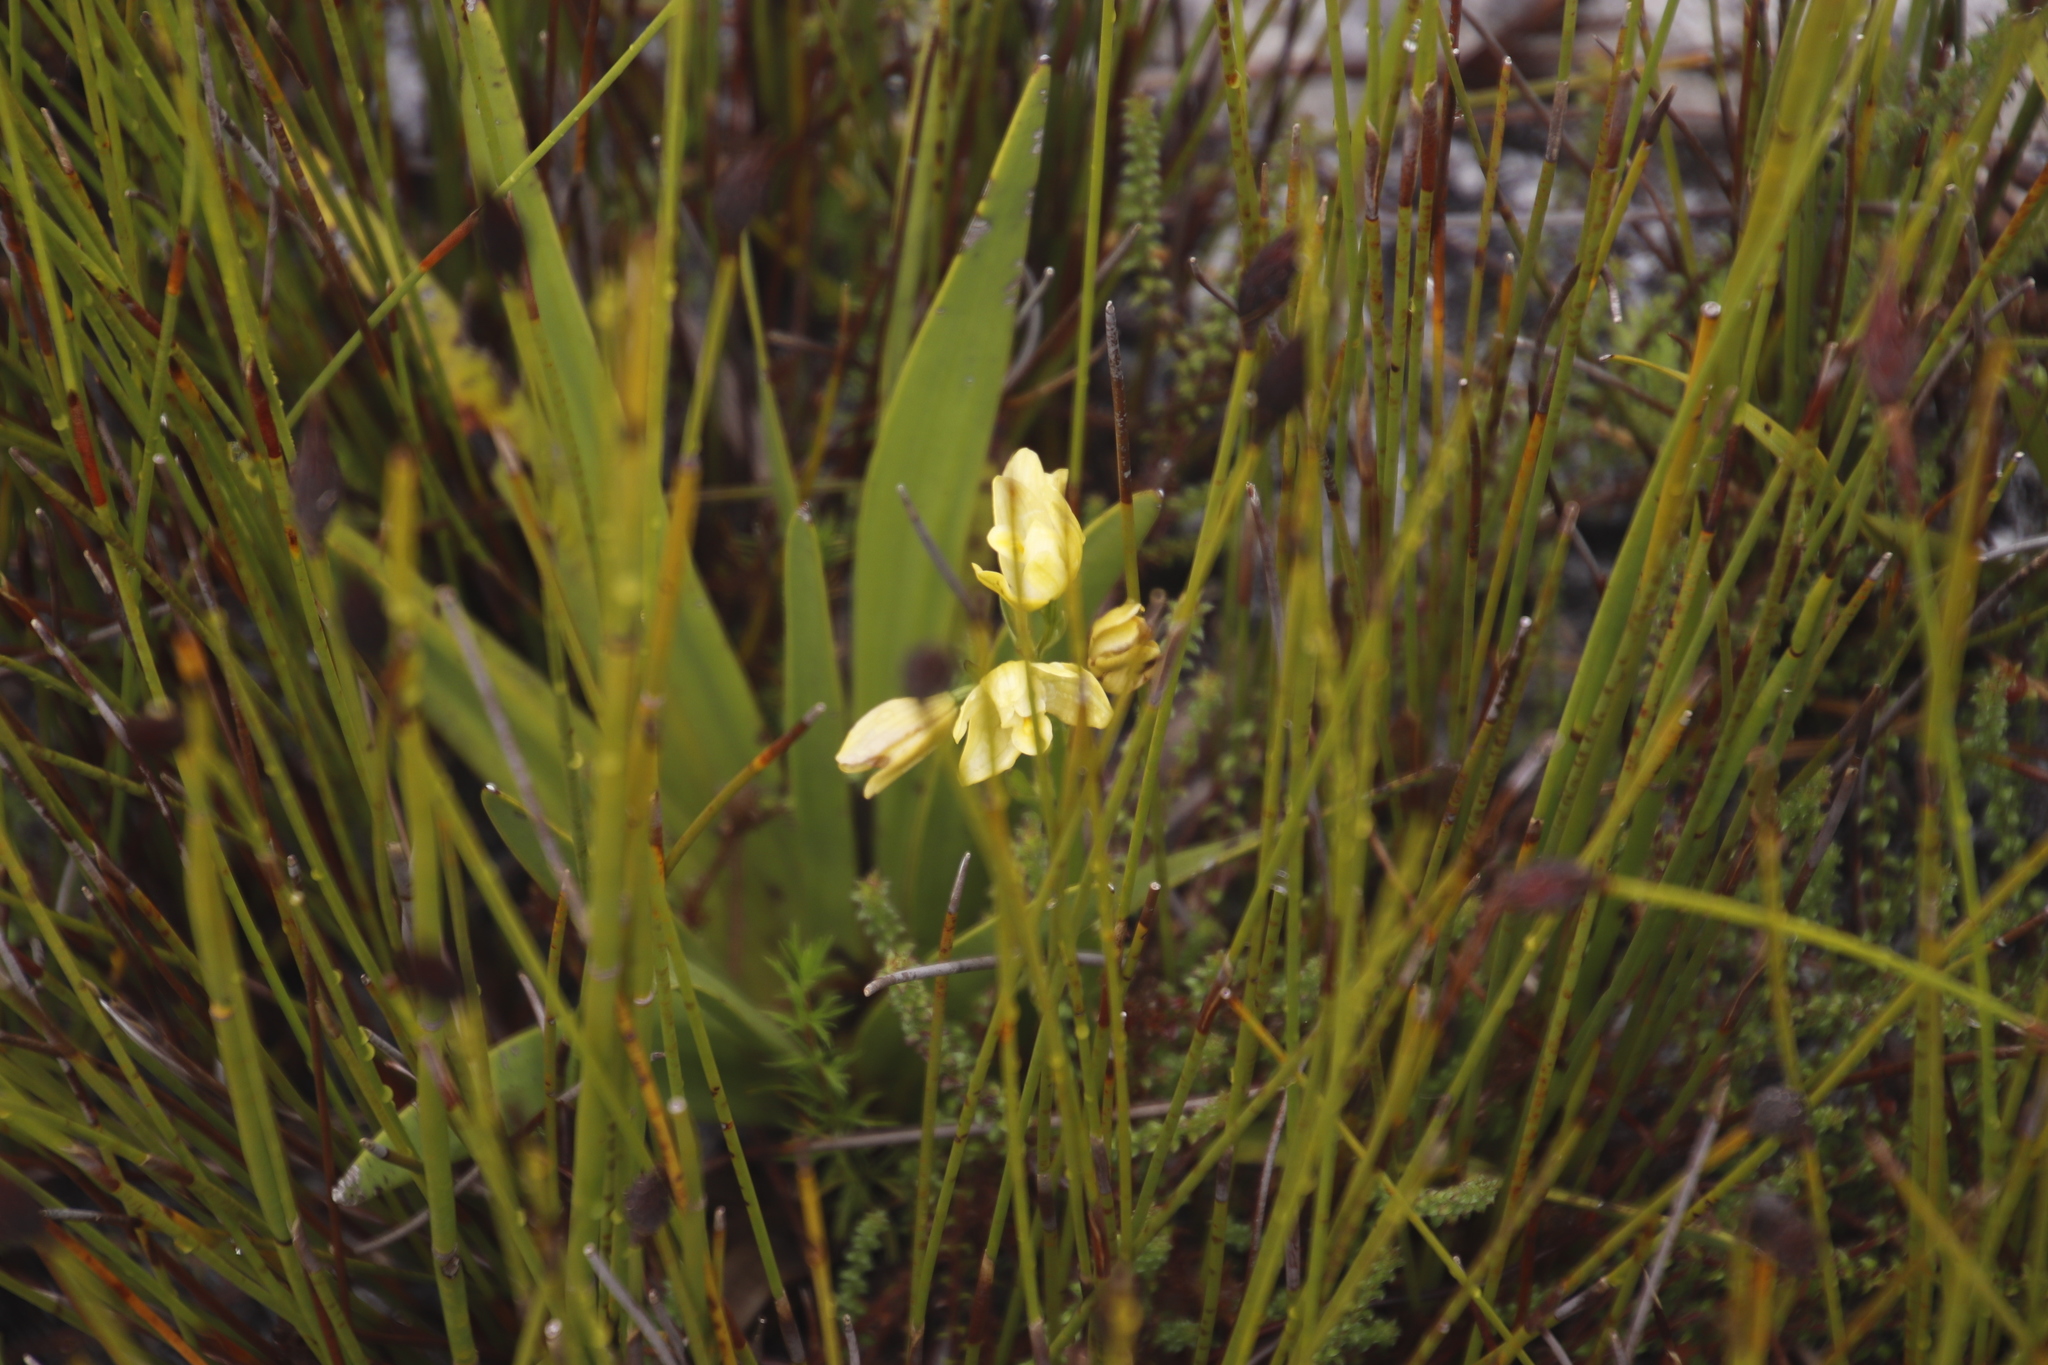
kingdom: Plantae
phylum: Tracheophyta
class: Liliopsida
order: Asparagales
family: Orchidaceae
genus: Eulophia
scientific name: Eulophia tabularis
